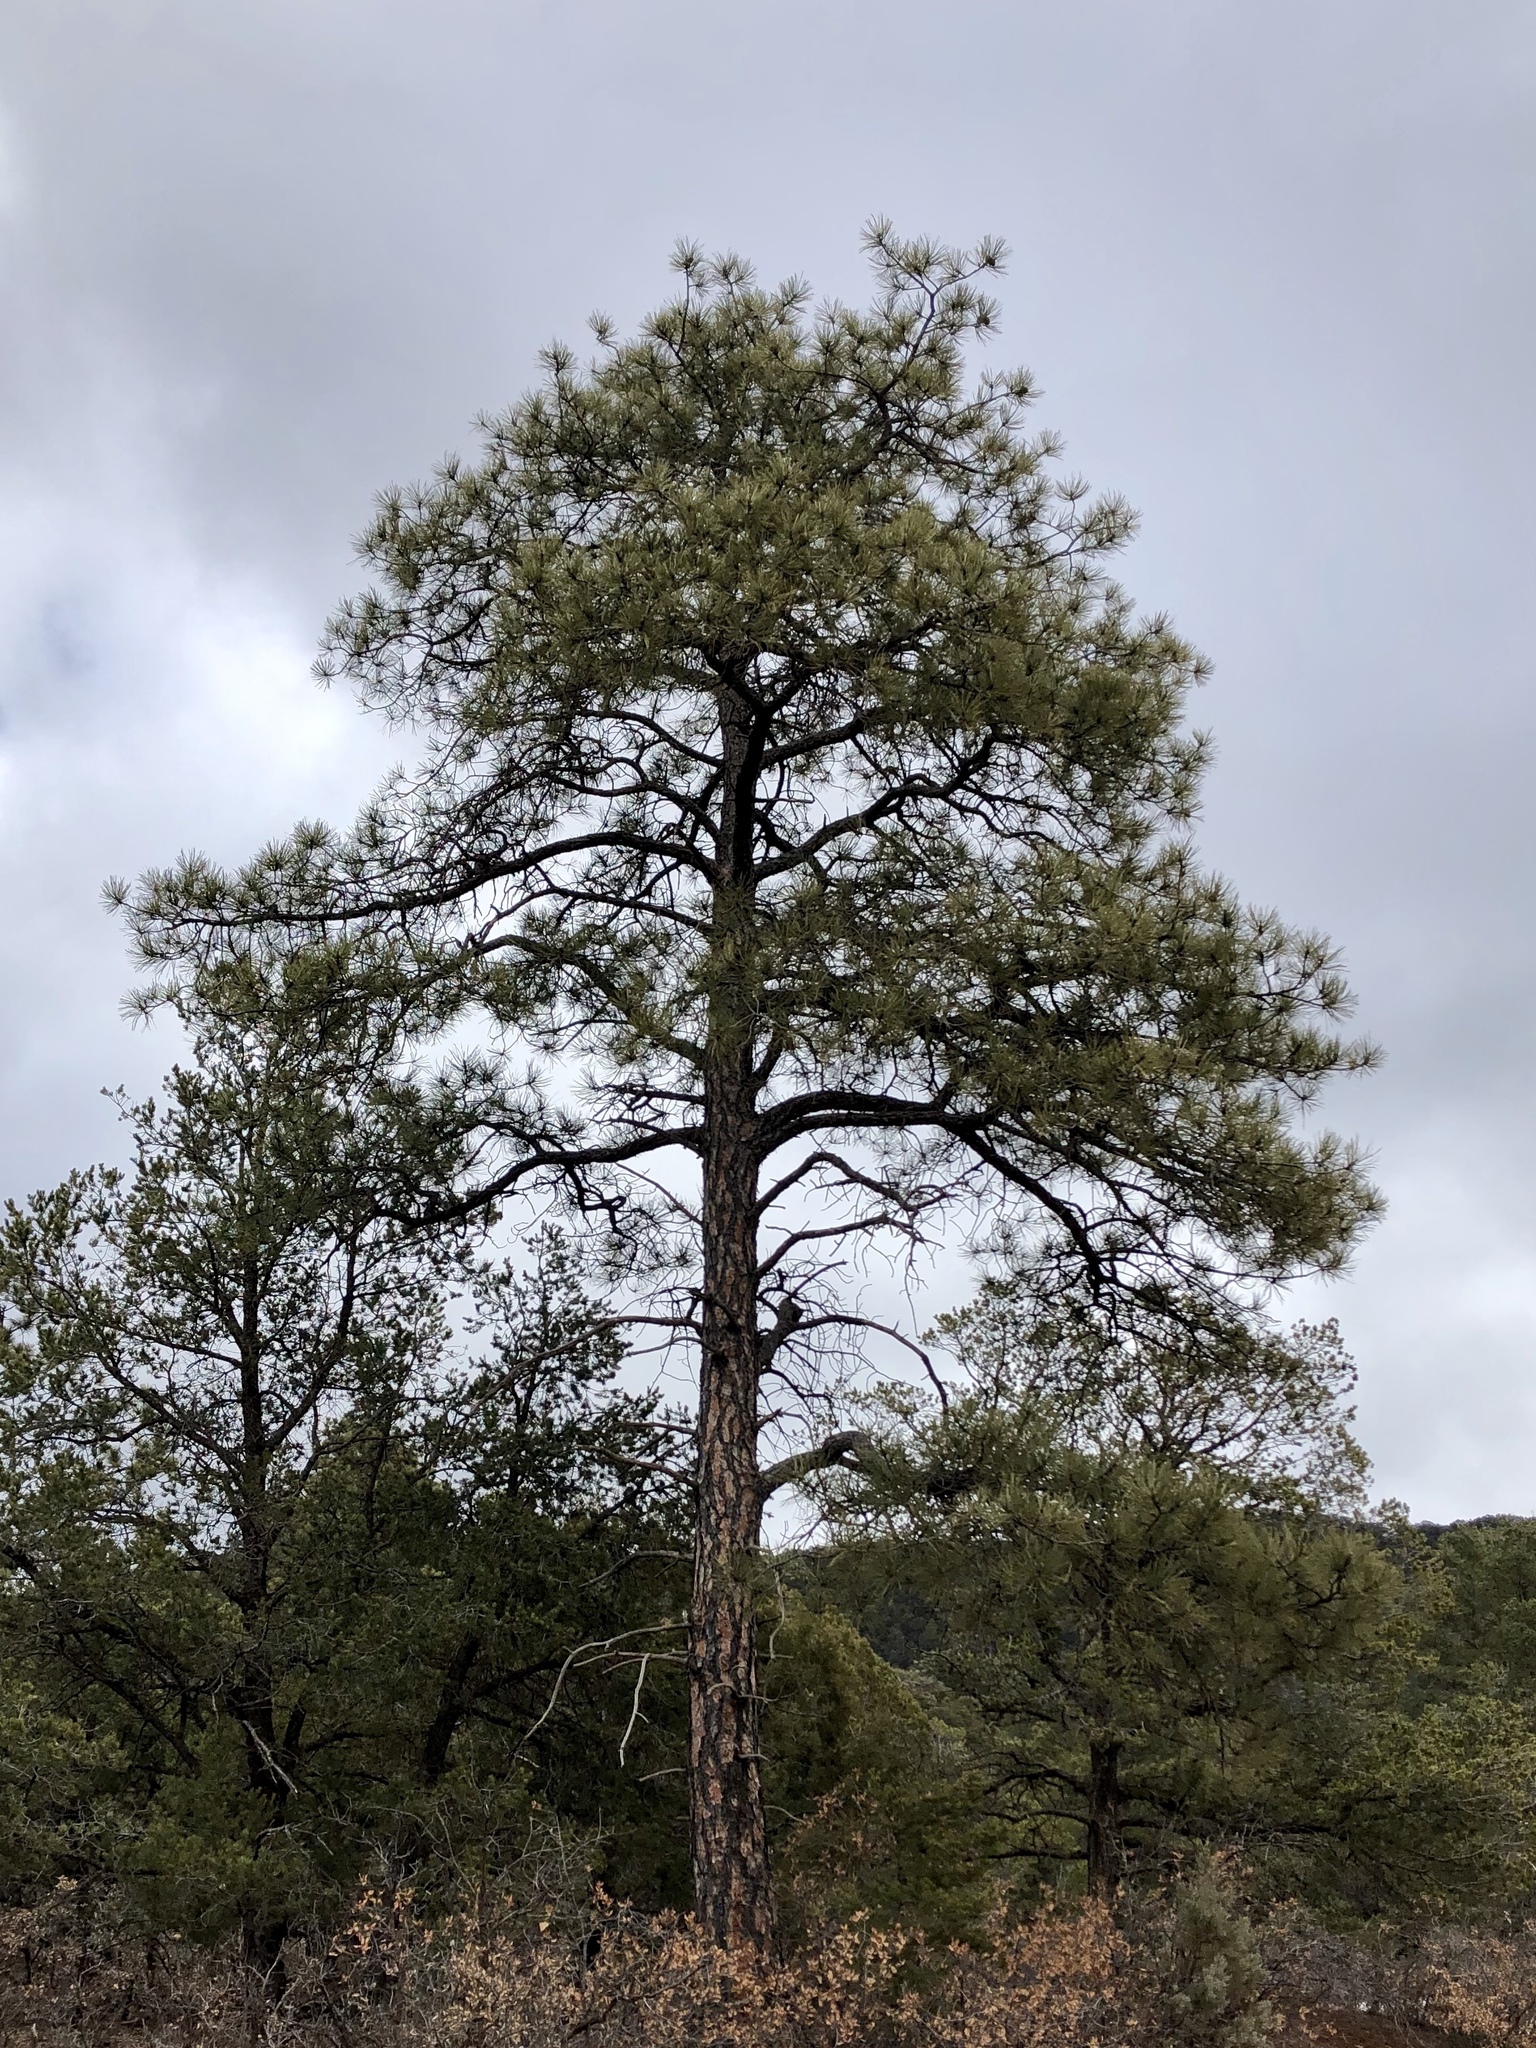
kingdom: Plantae
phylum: Tracheophyta
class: Pinopsida
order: Pinales
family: Pinaceae
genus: Pinus
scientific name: Pinus ponderosa
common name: Western yellow-pine
